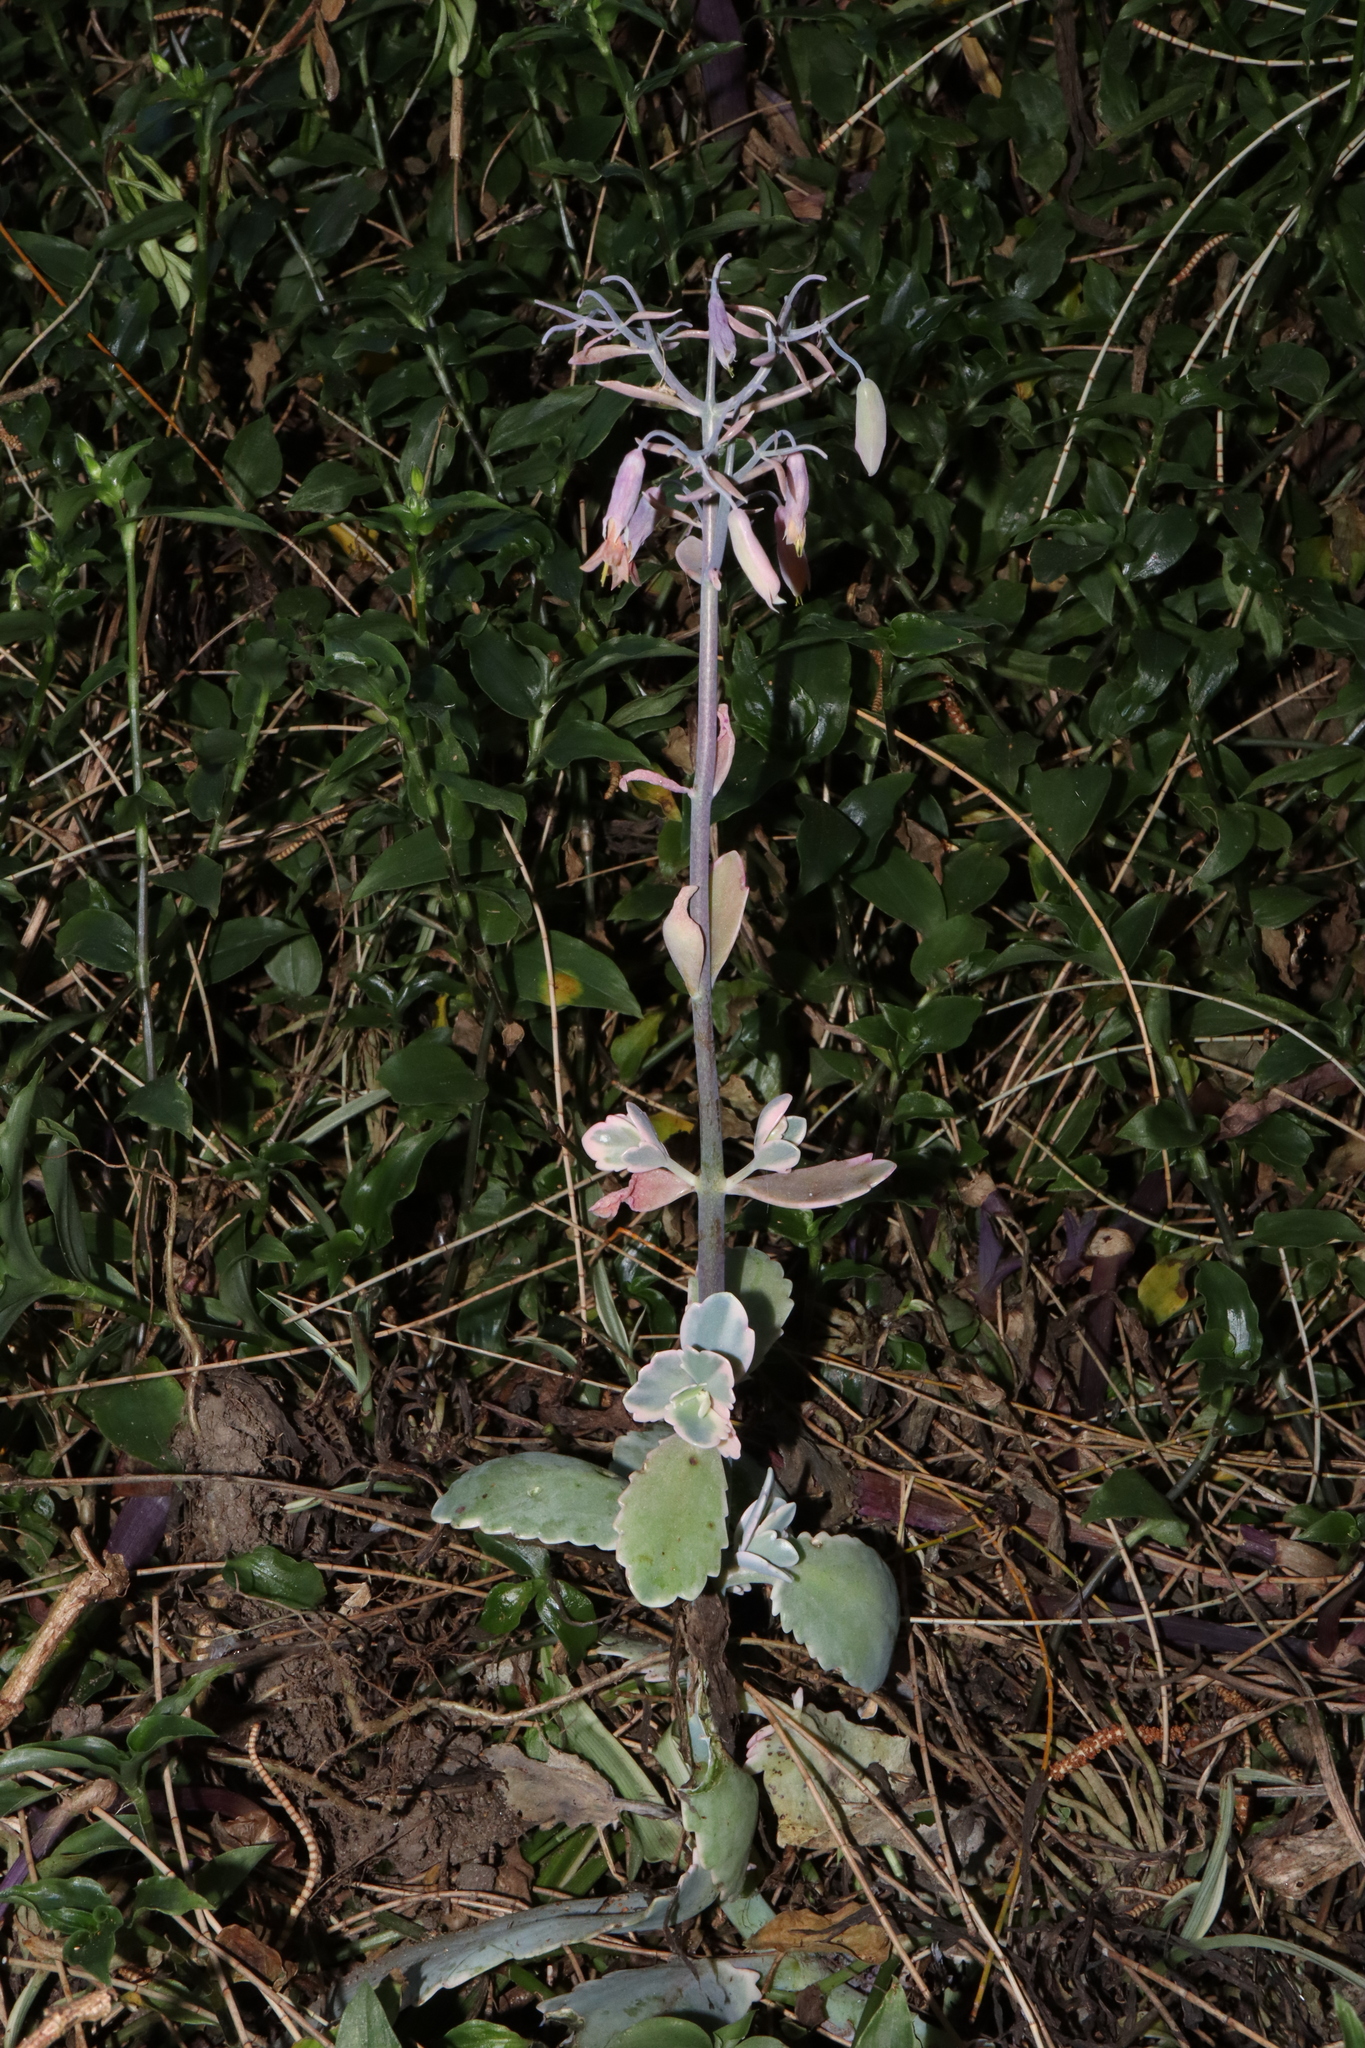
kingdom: Plantae
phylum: Tracheophyta
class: Magnoliopsida
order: Saxifragales
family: Crassulaceae
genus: Kalanchoe
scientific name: Kalanchoe fedtschenkoi
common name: Lavender scallops
